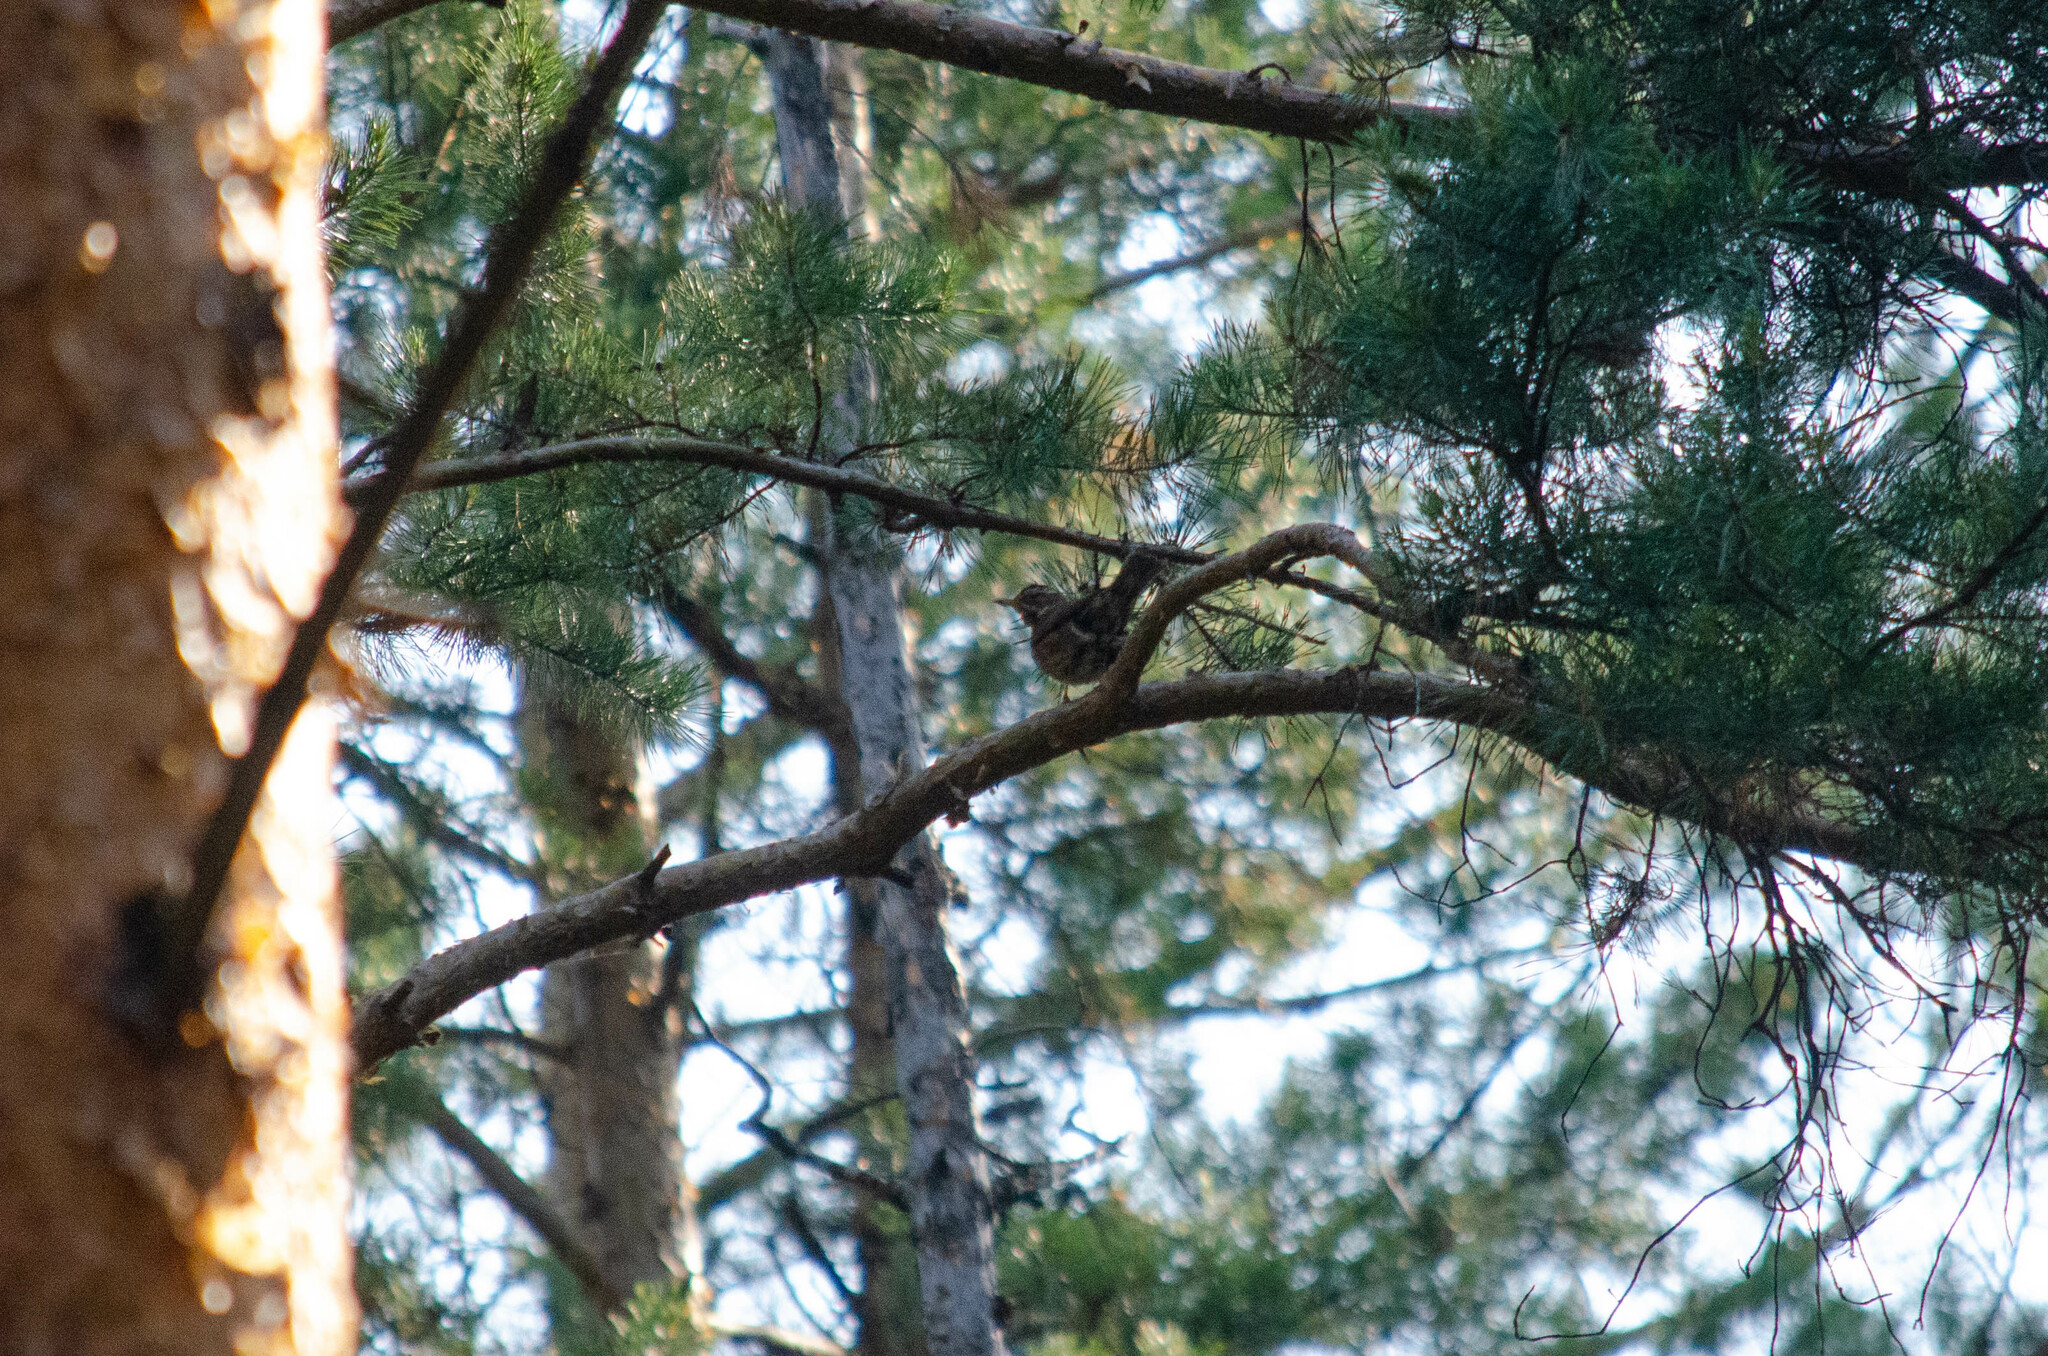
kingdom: Animalia
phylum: Chordata
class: Aves
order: Passeriformes
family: Turdidae
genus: Turdus
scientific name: Turdus iliacus
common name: Redwing
